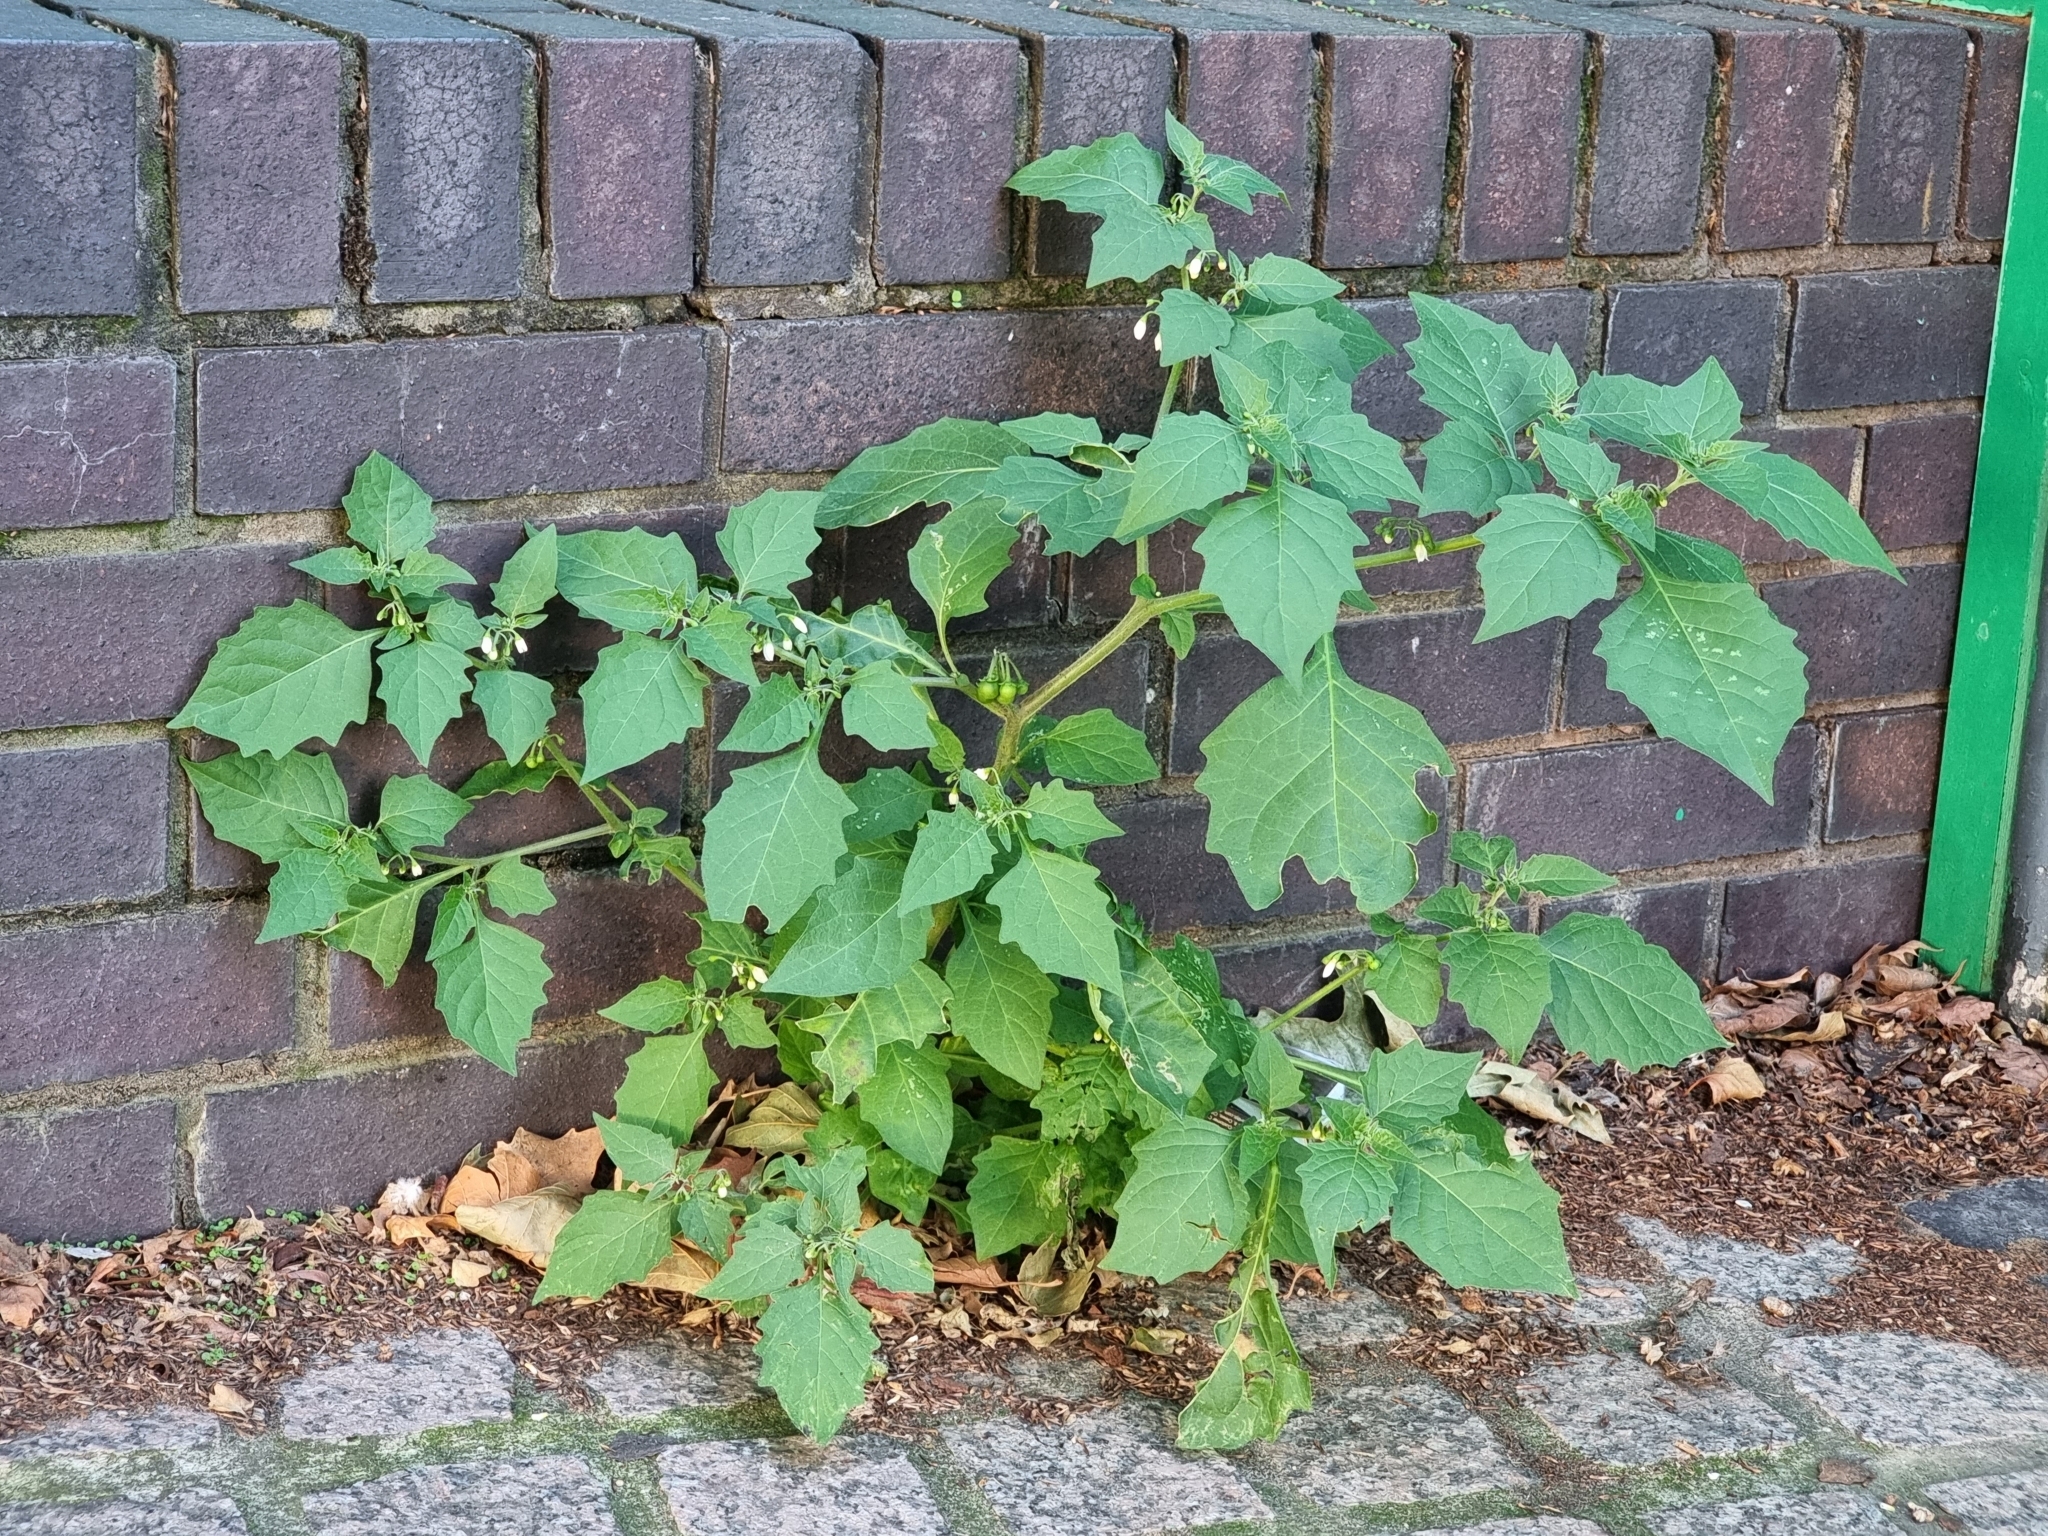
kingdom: Plantae
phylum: Tracheophyta
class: Magnoliopsida
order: Solanales
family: Solanaceae
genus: Solanum
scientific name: Solanum nigrum
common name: Black nightshade
